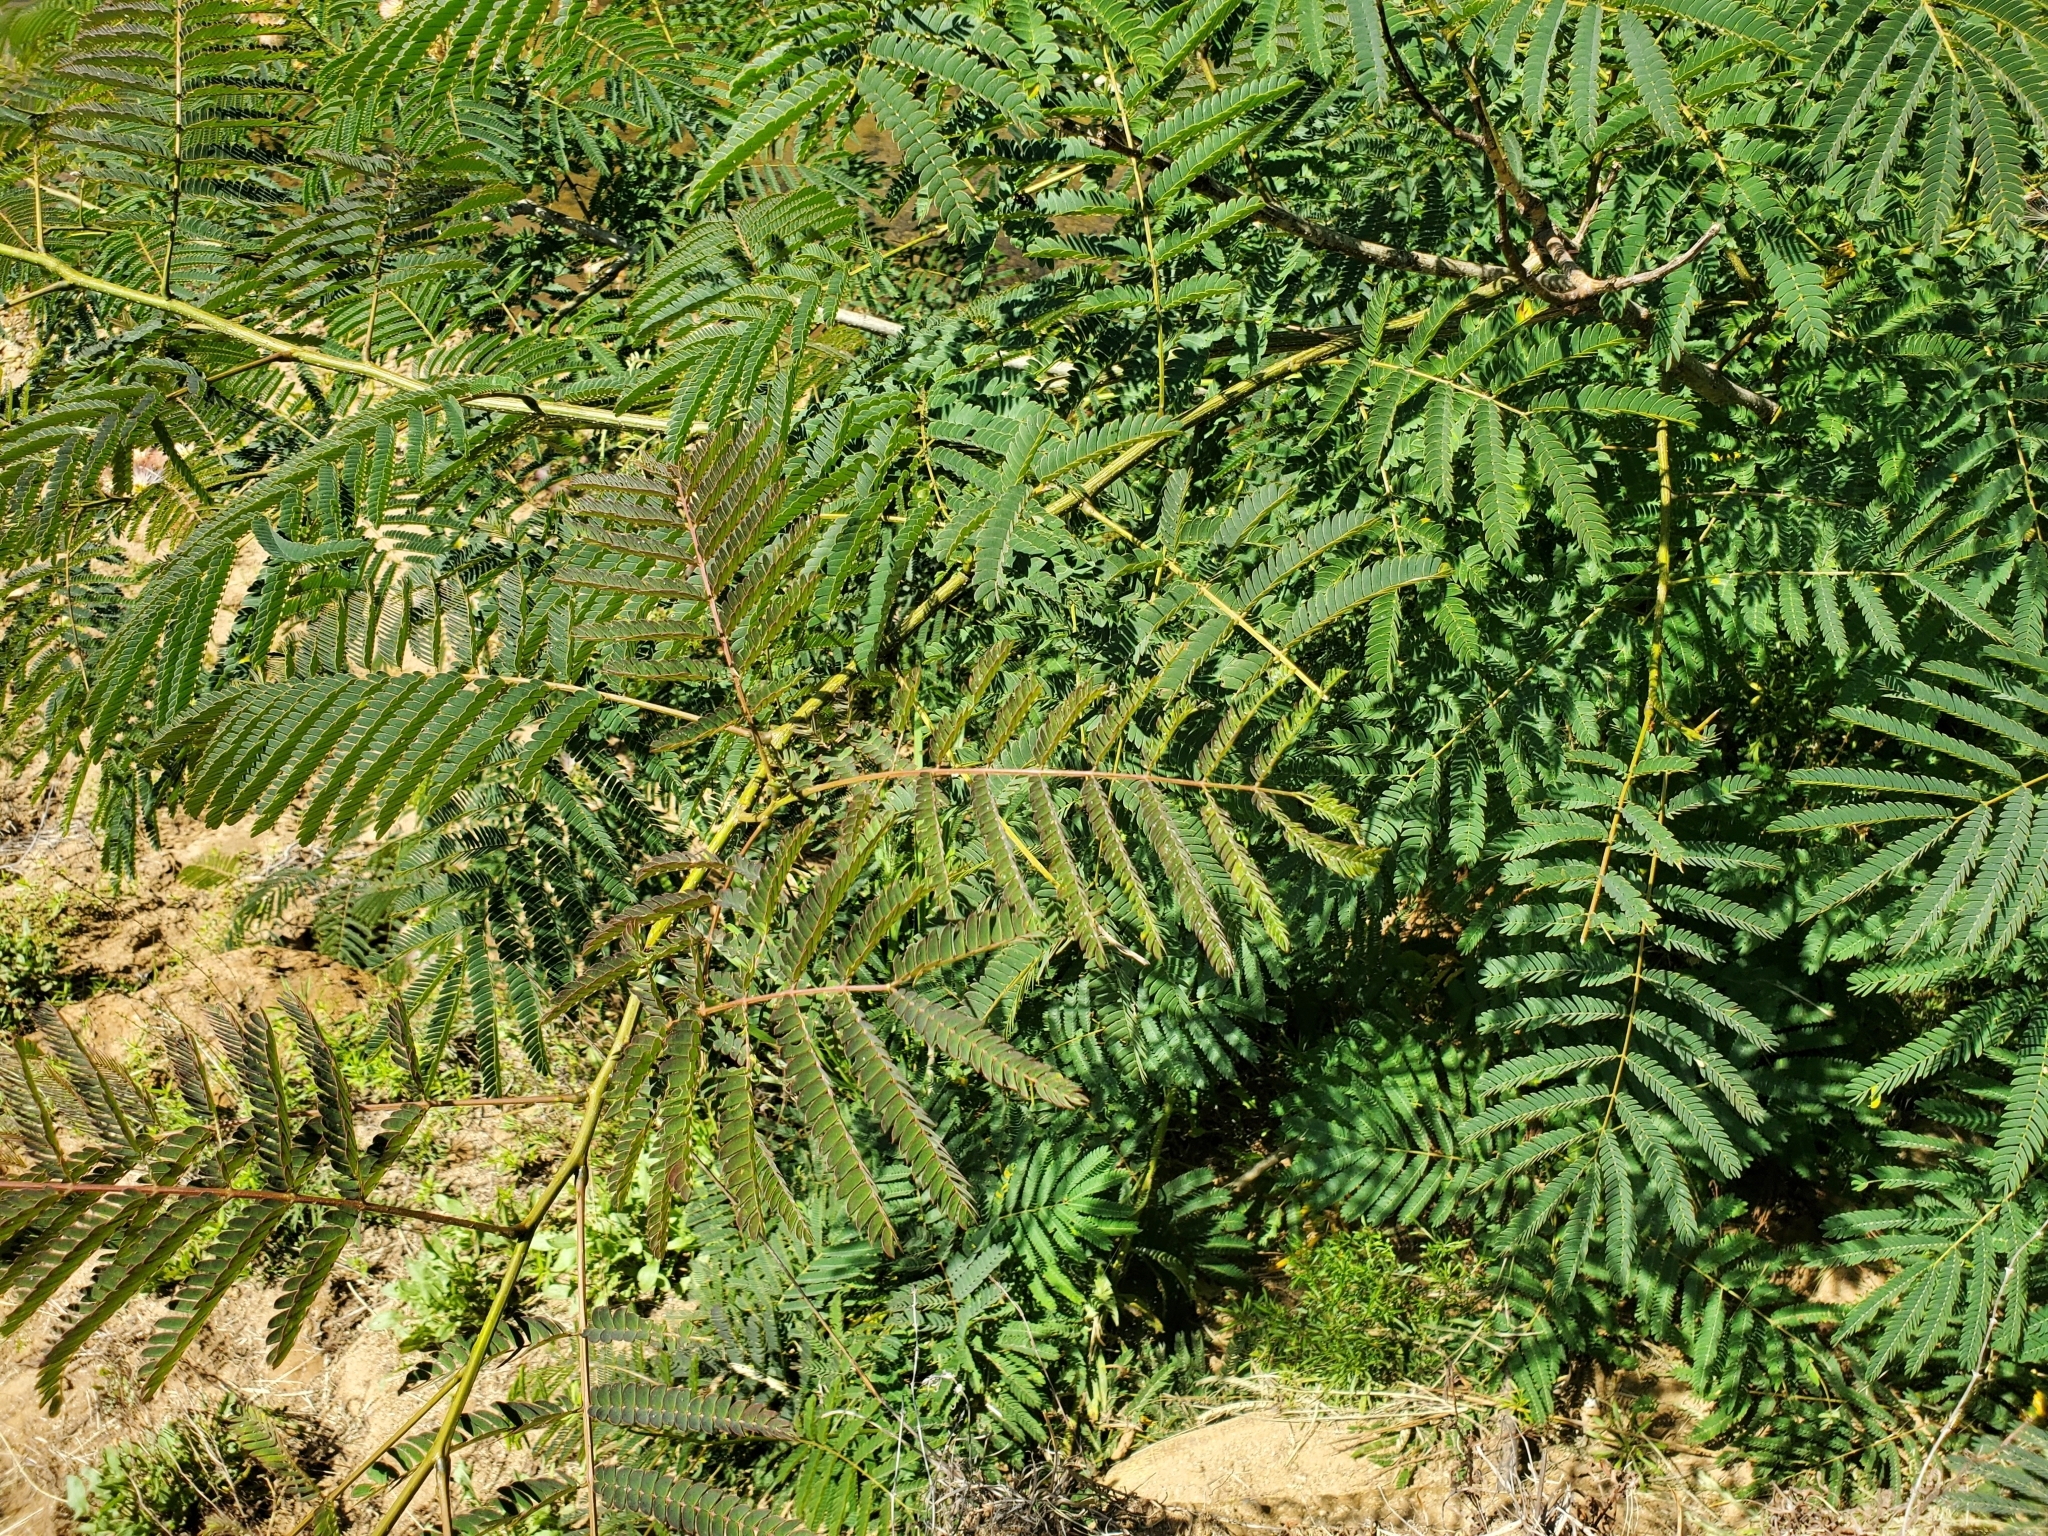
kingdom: Plantae
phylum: Tracheophyta
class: Magnoliopsida
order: Fabales
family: Fabaceae
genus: Albizia
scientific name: Albizia julibrissin
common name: Silktree
